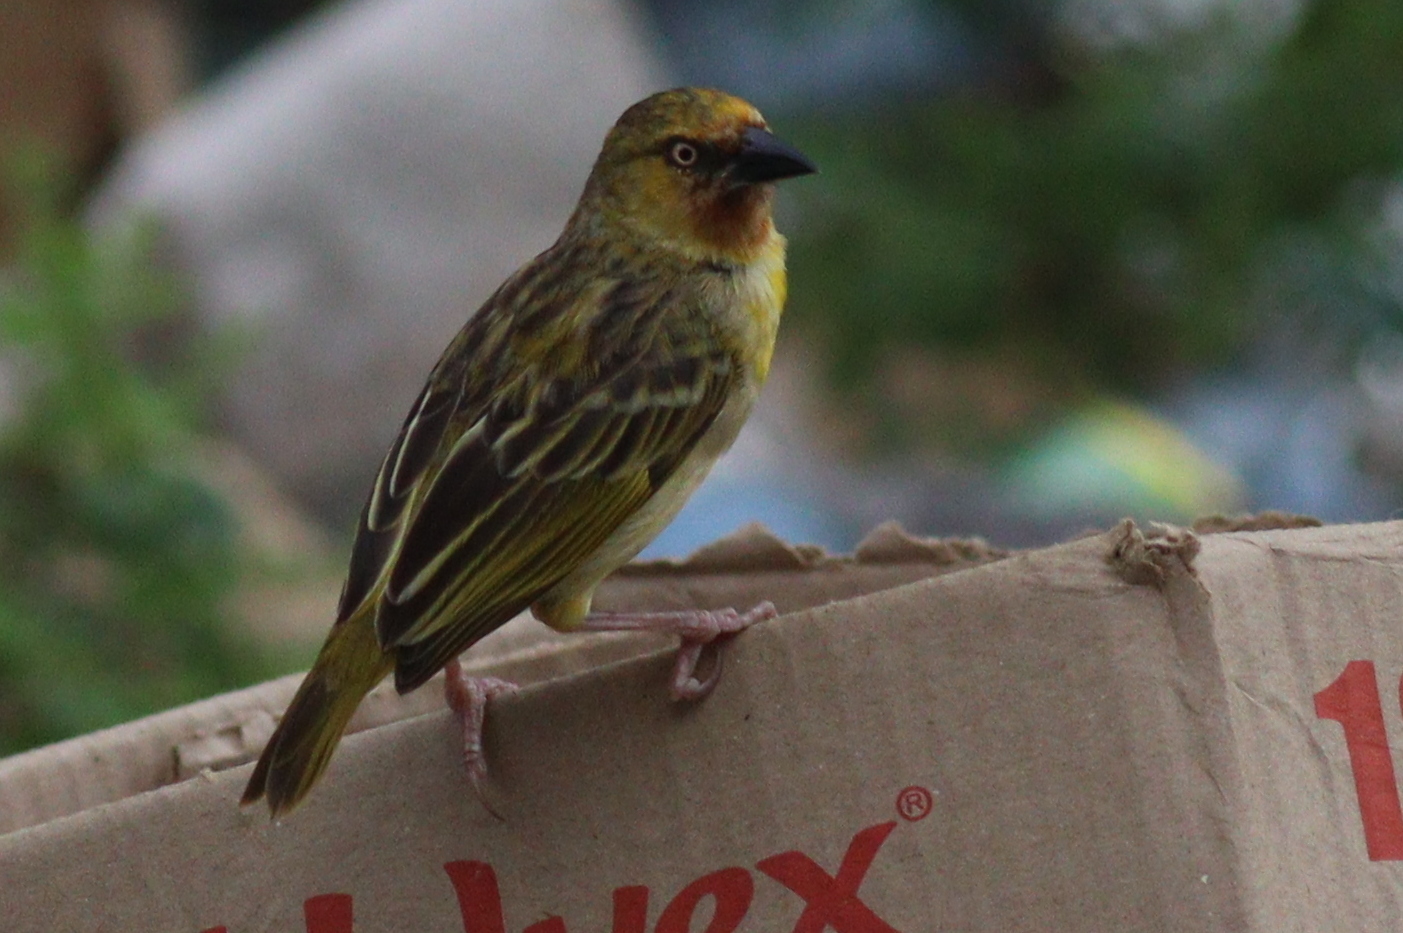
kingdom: Animalia
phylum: Chordata
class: Aves
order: Passeriformes
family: Ploceidae
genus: Ploceus
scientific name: Ploceus castanops
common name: Northern brown-throated weaver
